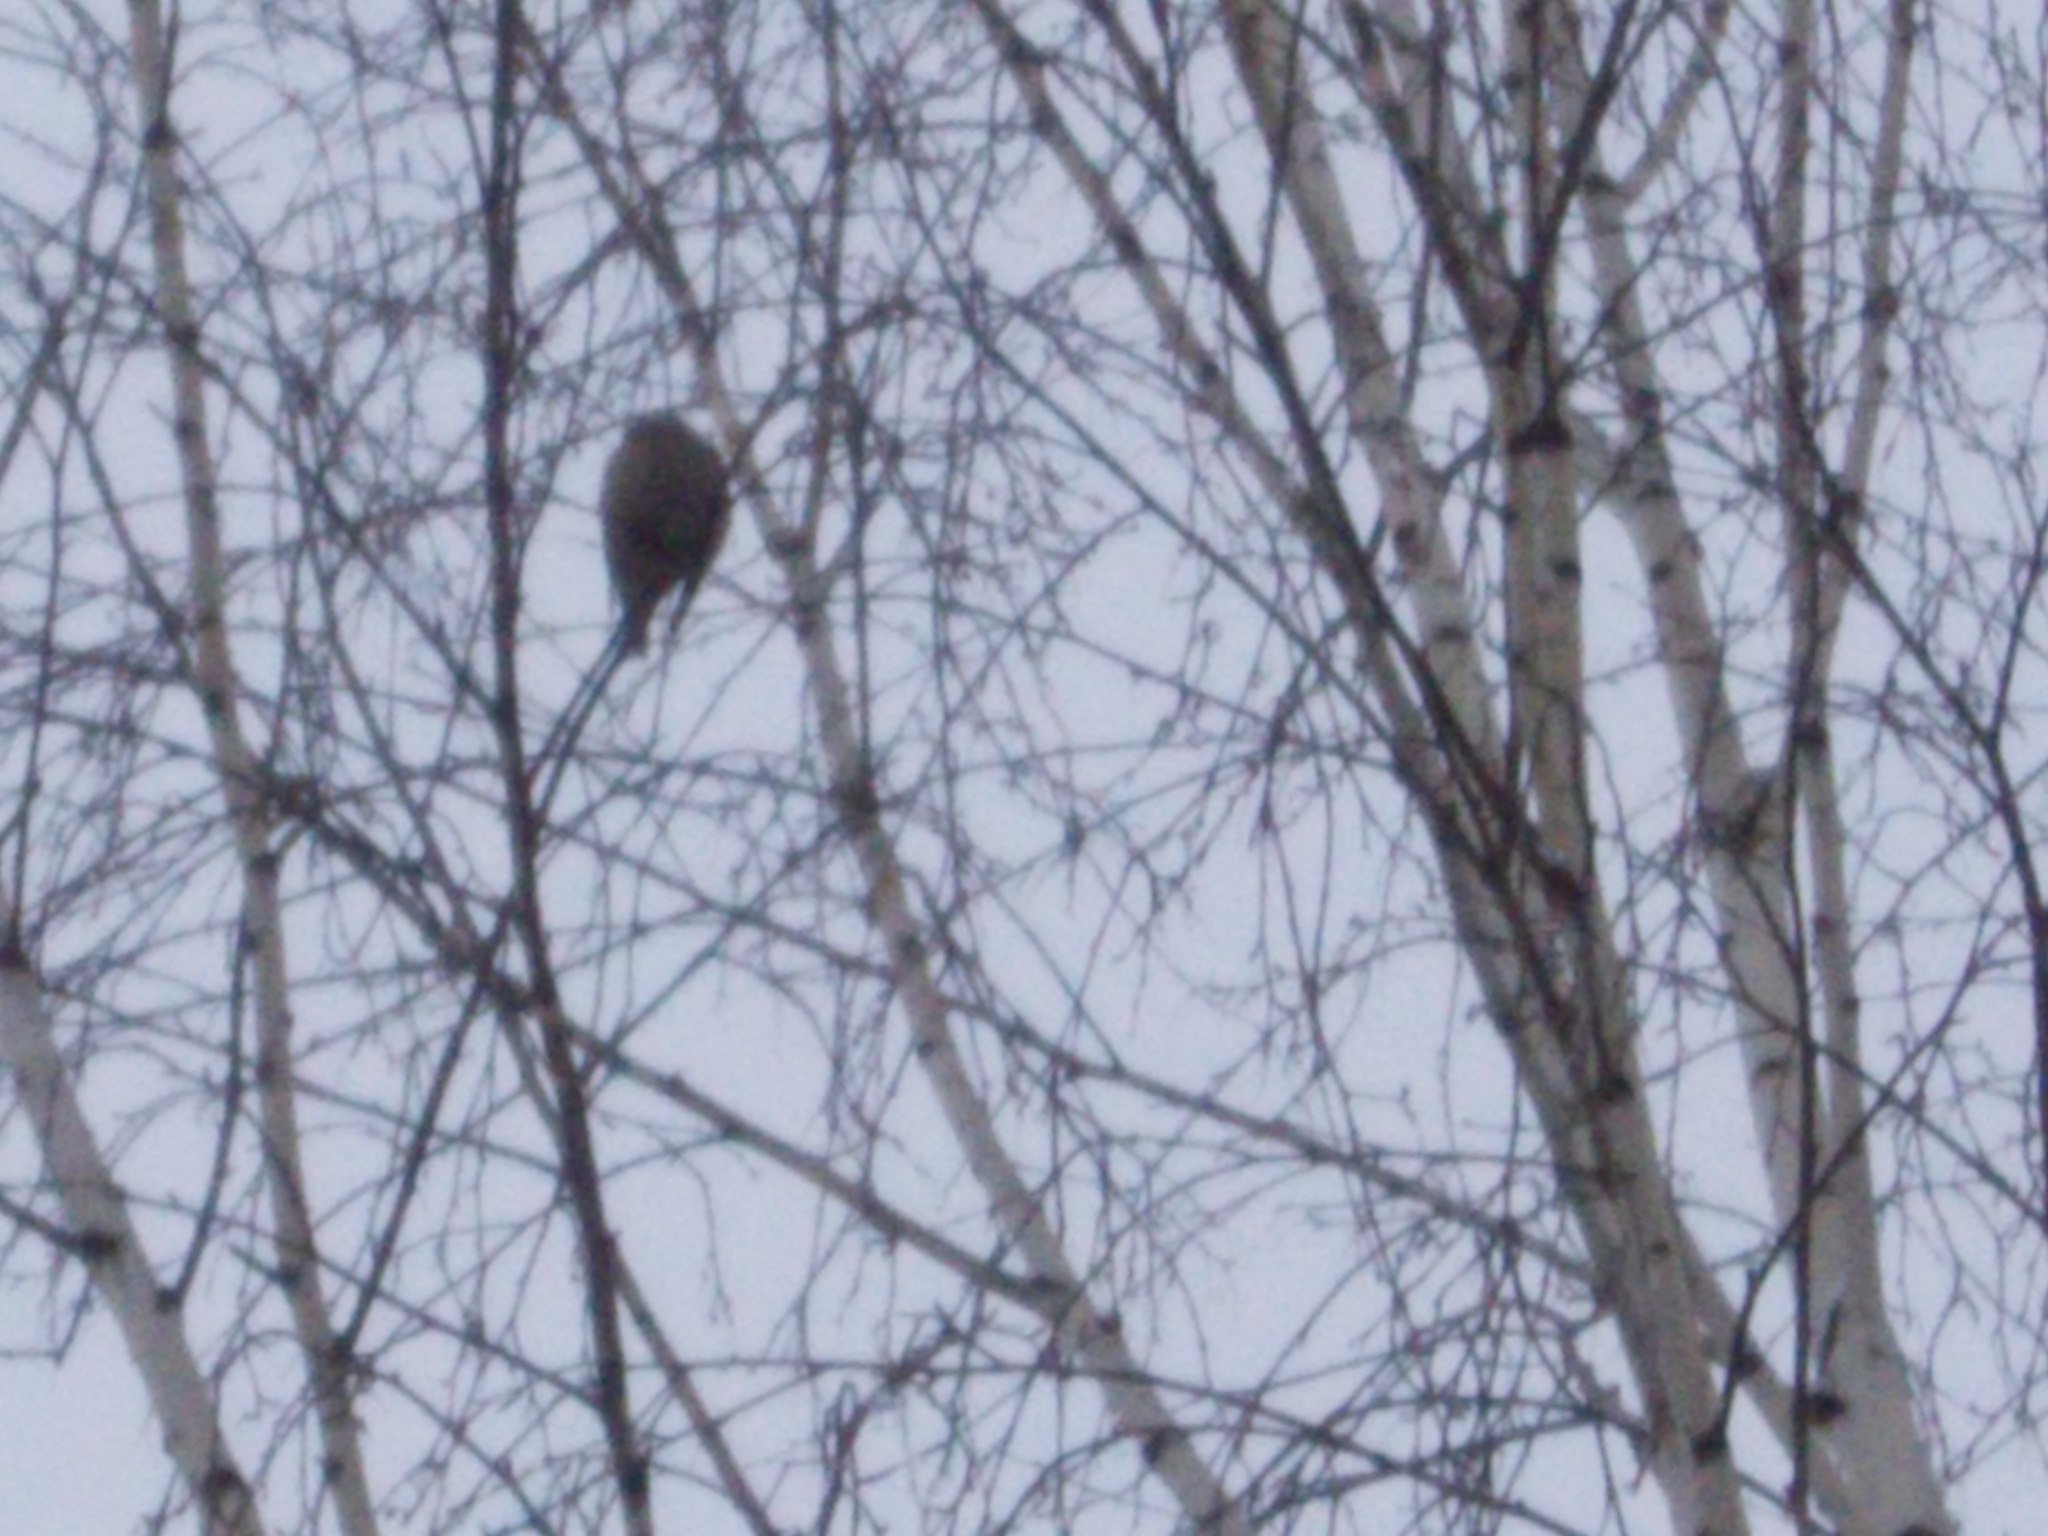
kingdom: Animalia
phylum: Chordata
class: Aves
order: Passeriformes
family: Fringillidae
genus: Coccothraustes
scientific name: Coccothraustes coccothraustes
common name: Hawfinch
